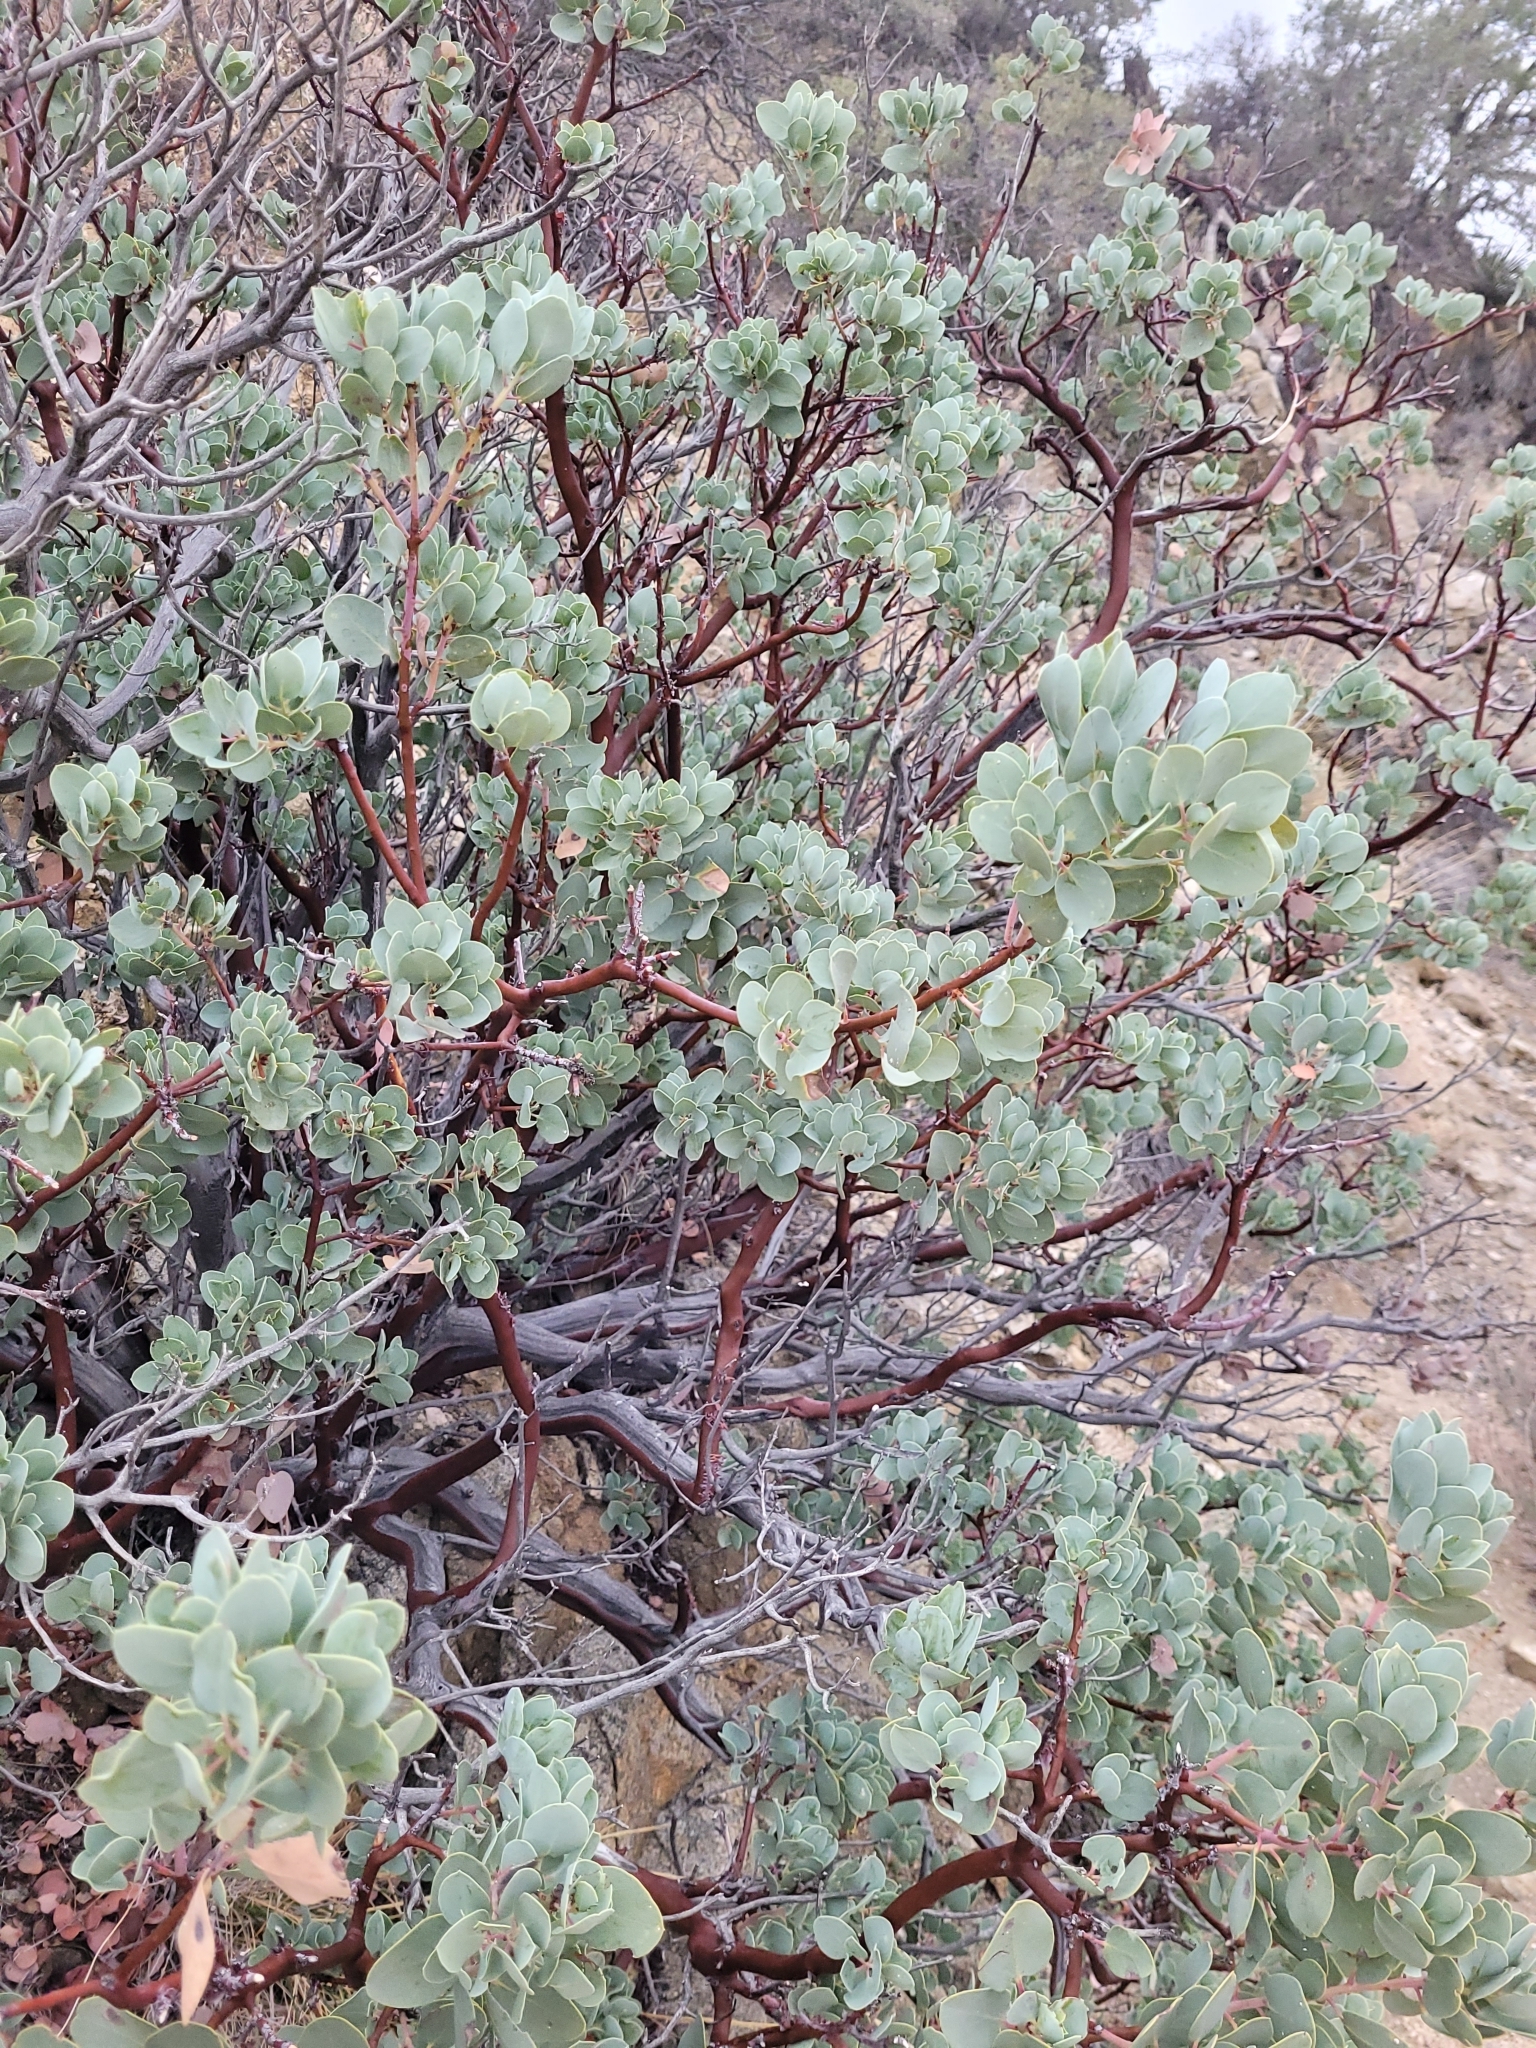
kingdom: Plantae
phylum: Tracheophyta
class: Magnoliopsida
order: Ericales
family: Ericaceae
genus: Arctostaphylos
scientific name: Arctostaphylos glauca
